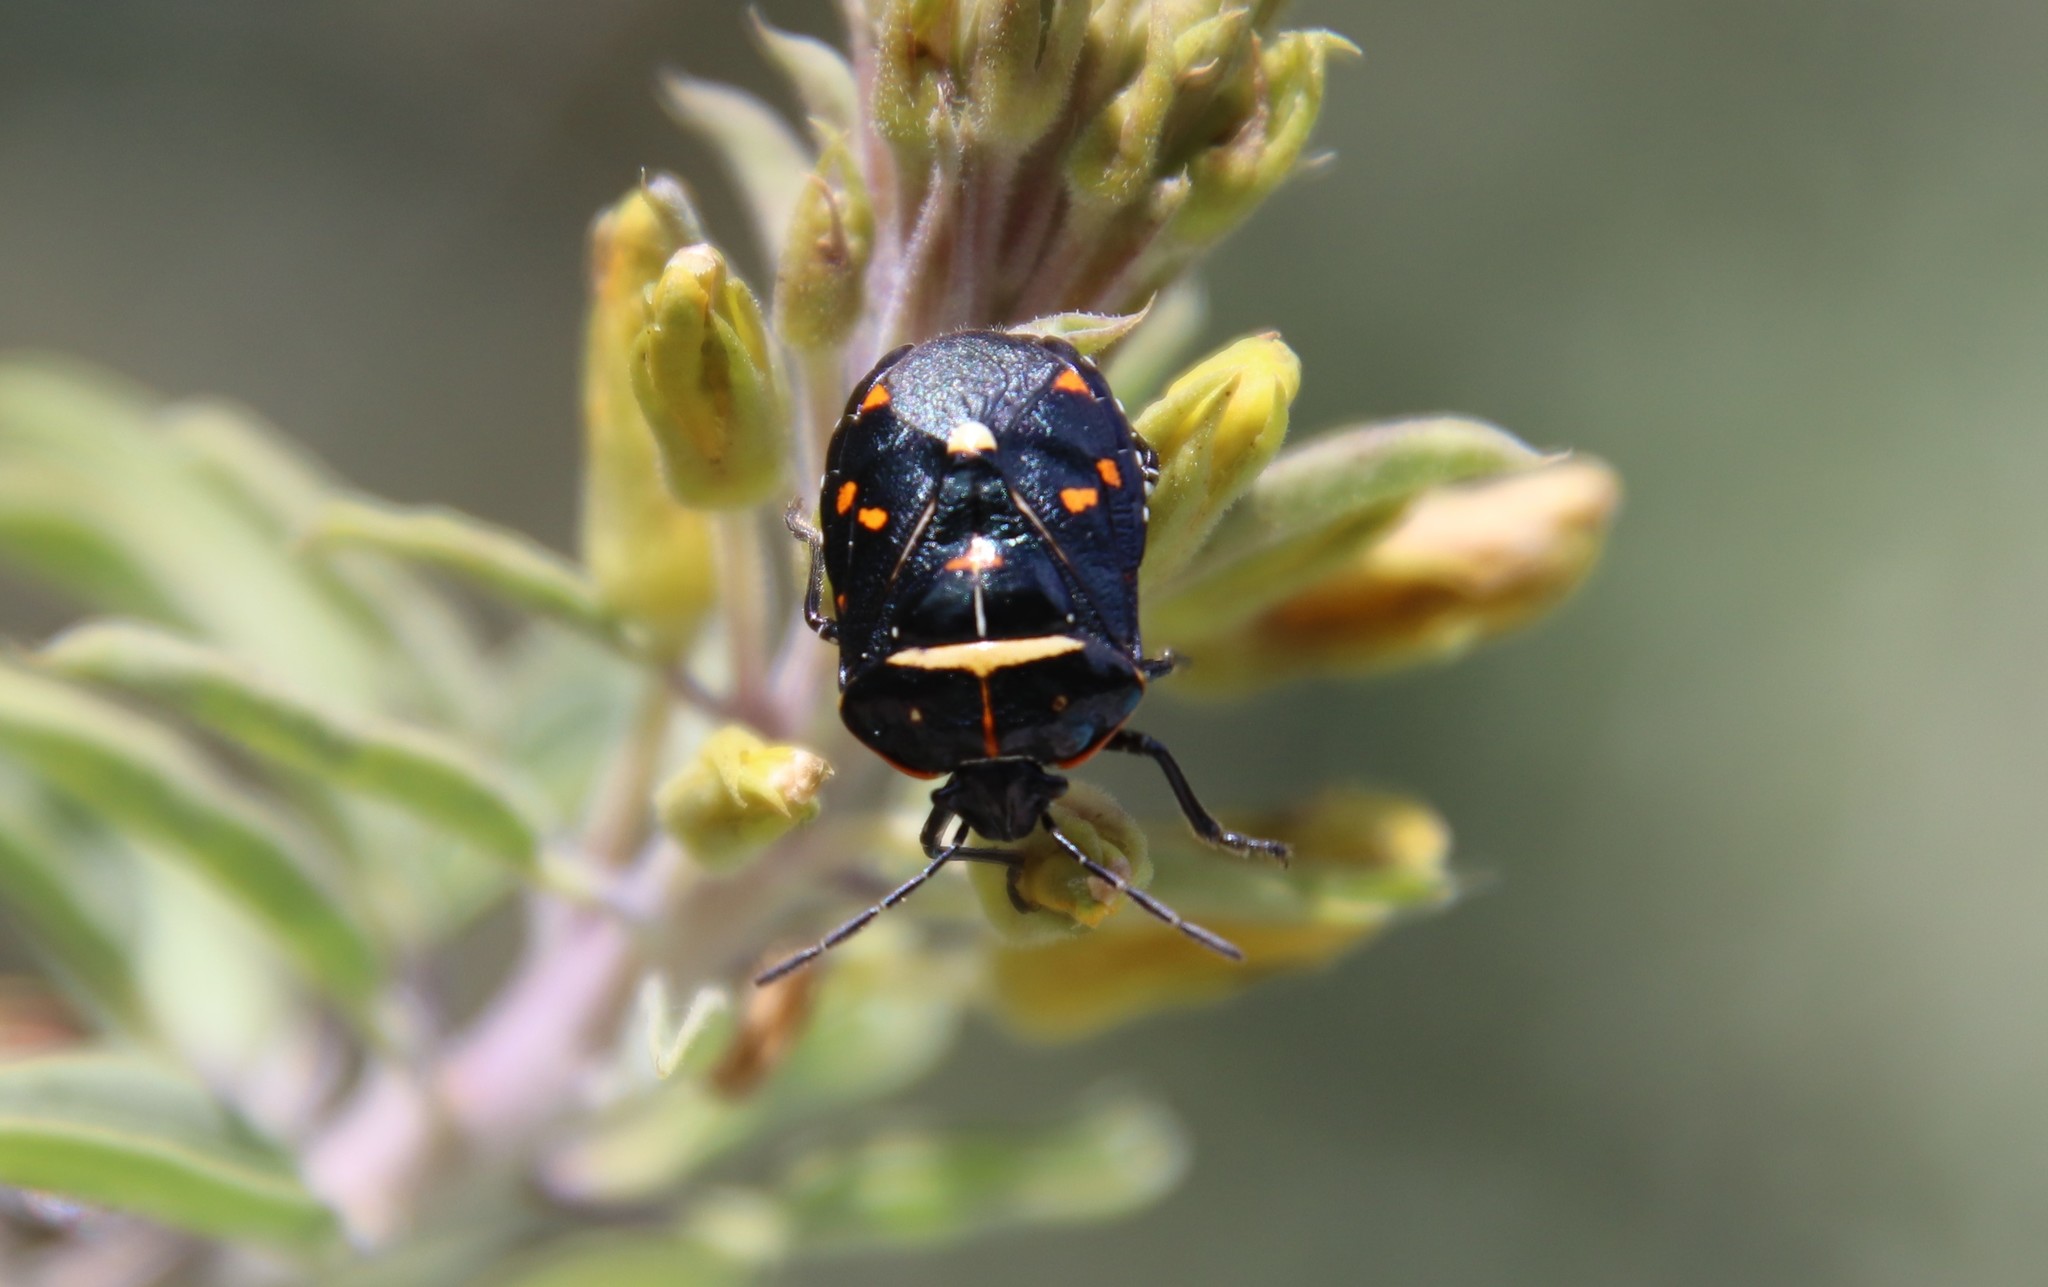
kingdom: Animalia
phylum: Arthropoda
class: Insecta
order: Hemiptera
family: Pentatomidae
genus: Murgantia
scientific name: Murgantia histrionica
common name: Harlequin bug
